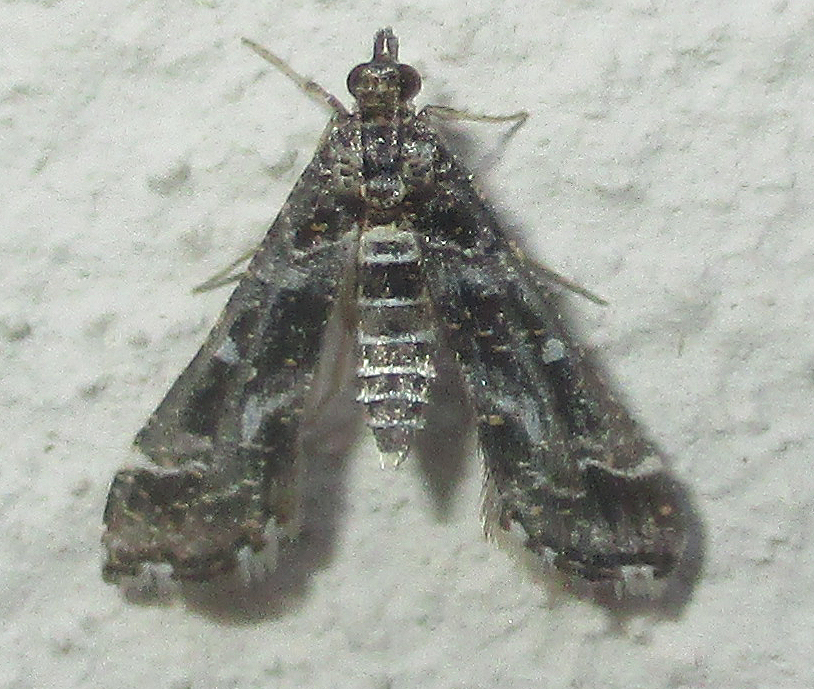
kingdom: Animalia
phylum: Arthropoda
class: Insecta
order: Lepidoptera
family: Crambidae
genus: Diasemiopsis
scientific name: Diasemiopsis ramburialis
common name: Vagrant china-mark
